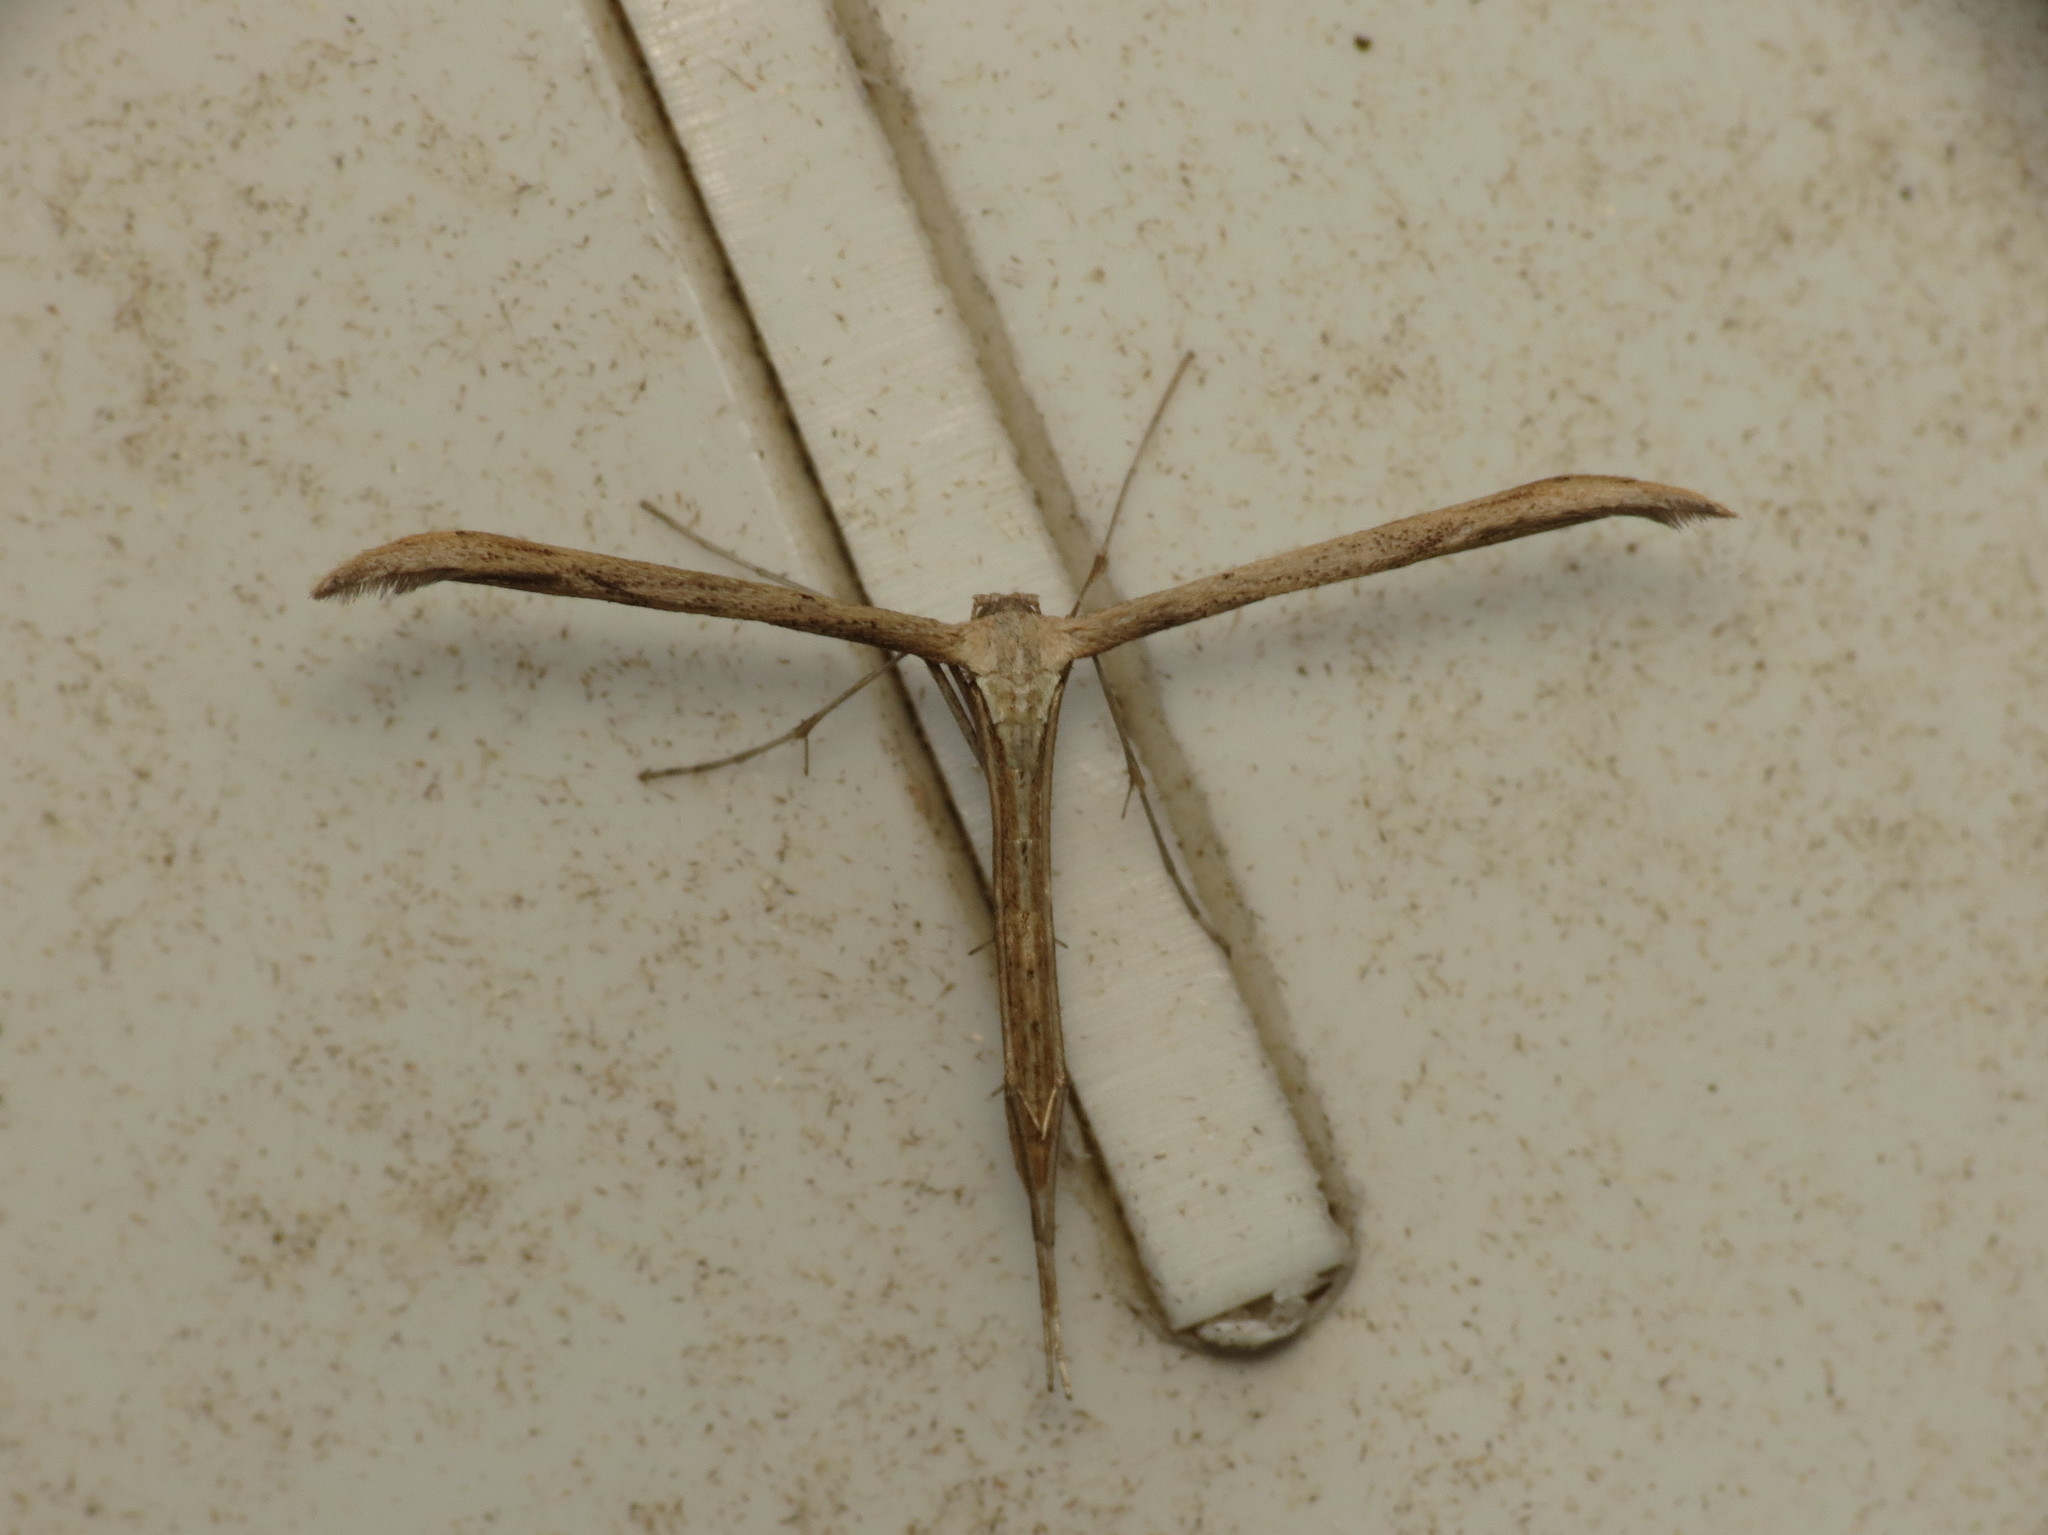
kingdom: Animalia
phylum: Arthropoda
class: Insecta
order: Lepidoptera
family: Pterophoridae
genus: Emmelina
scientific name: Emmelina monodactyla
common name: Common plume
